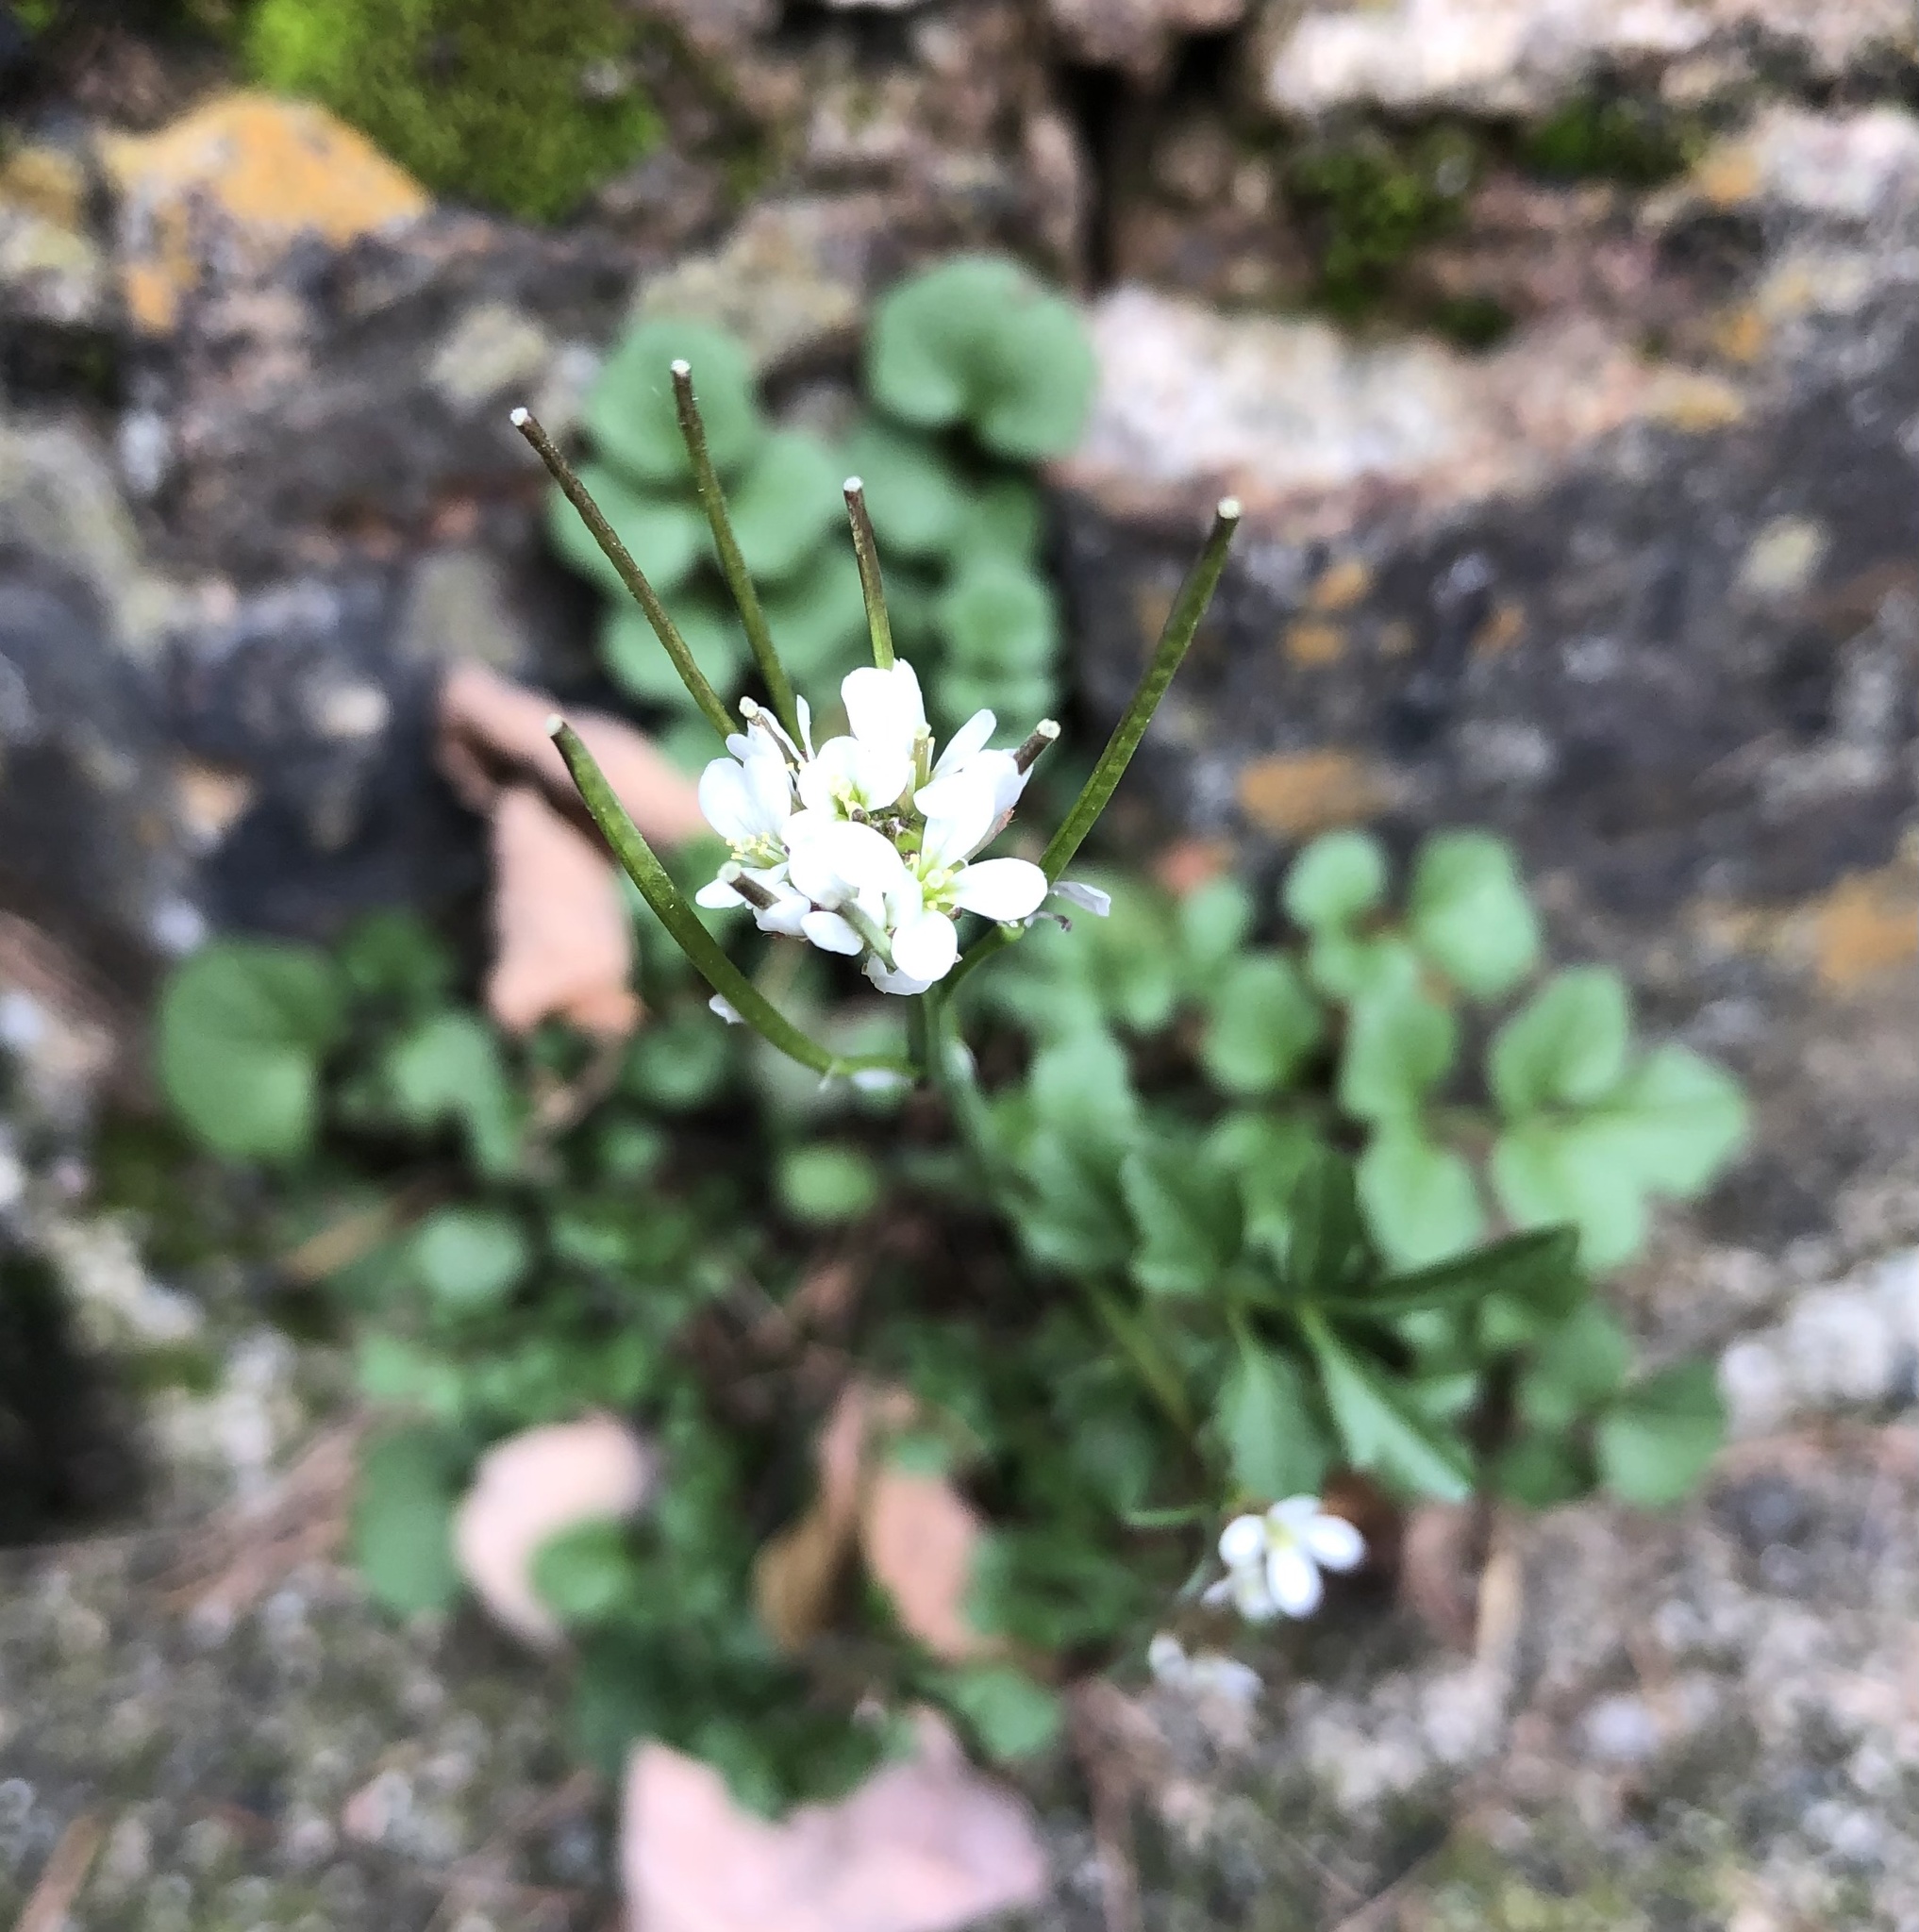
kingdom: Plantae
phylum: Tracheophyta
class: Magnoliopsida
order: Brassicales
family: Brassicaceae
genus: Cardamine
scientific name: Cardamine hirsuta
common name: Hairy bittercress
